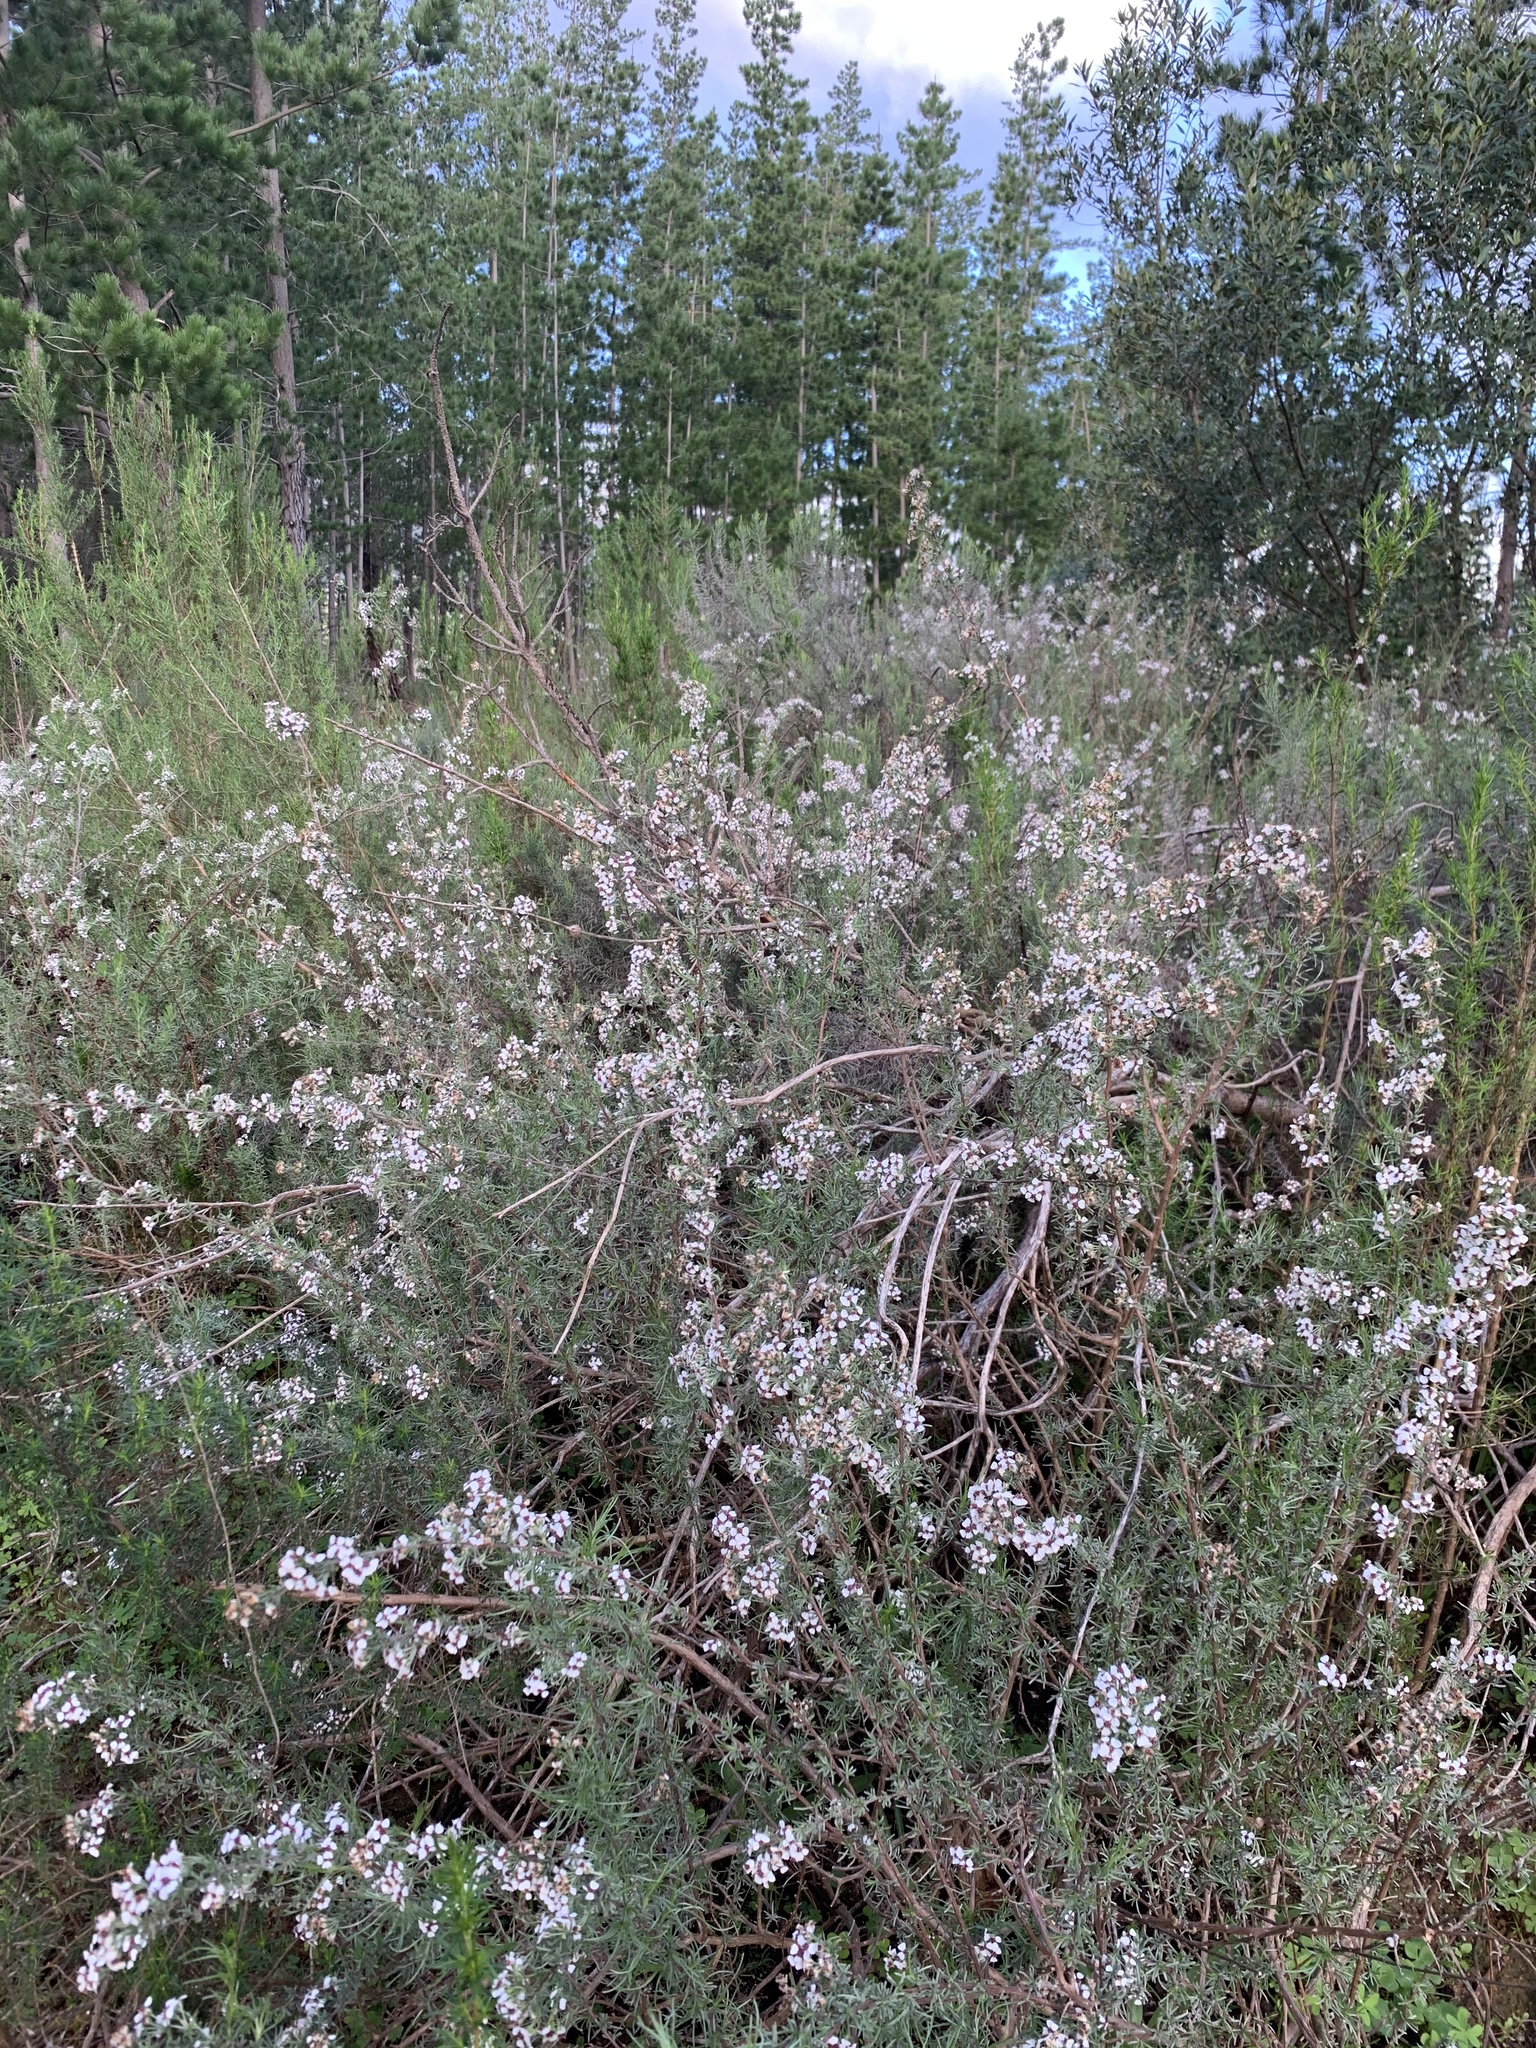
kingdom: Plantae
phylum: Tracheophyta
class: Magnoliopsida
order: Asterales
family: Asteraceae
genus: Eriocephalus
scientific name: Eriocephalus africanus
